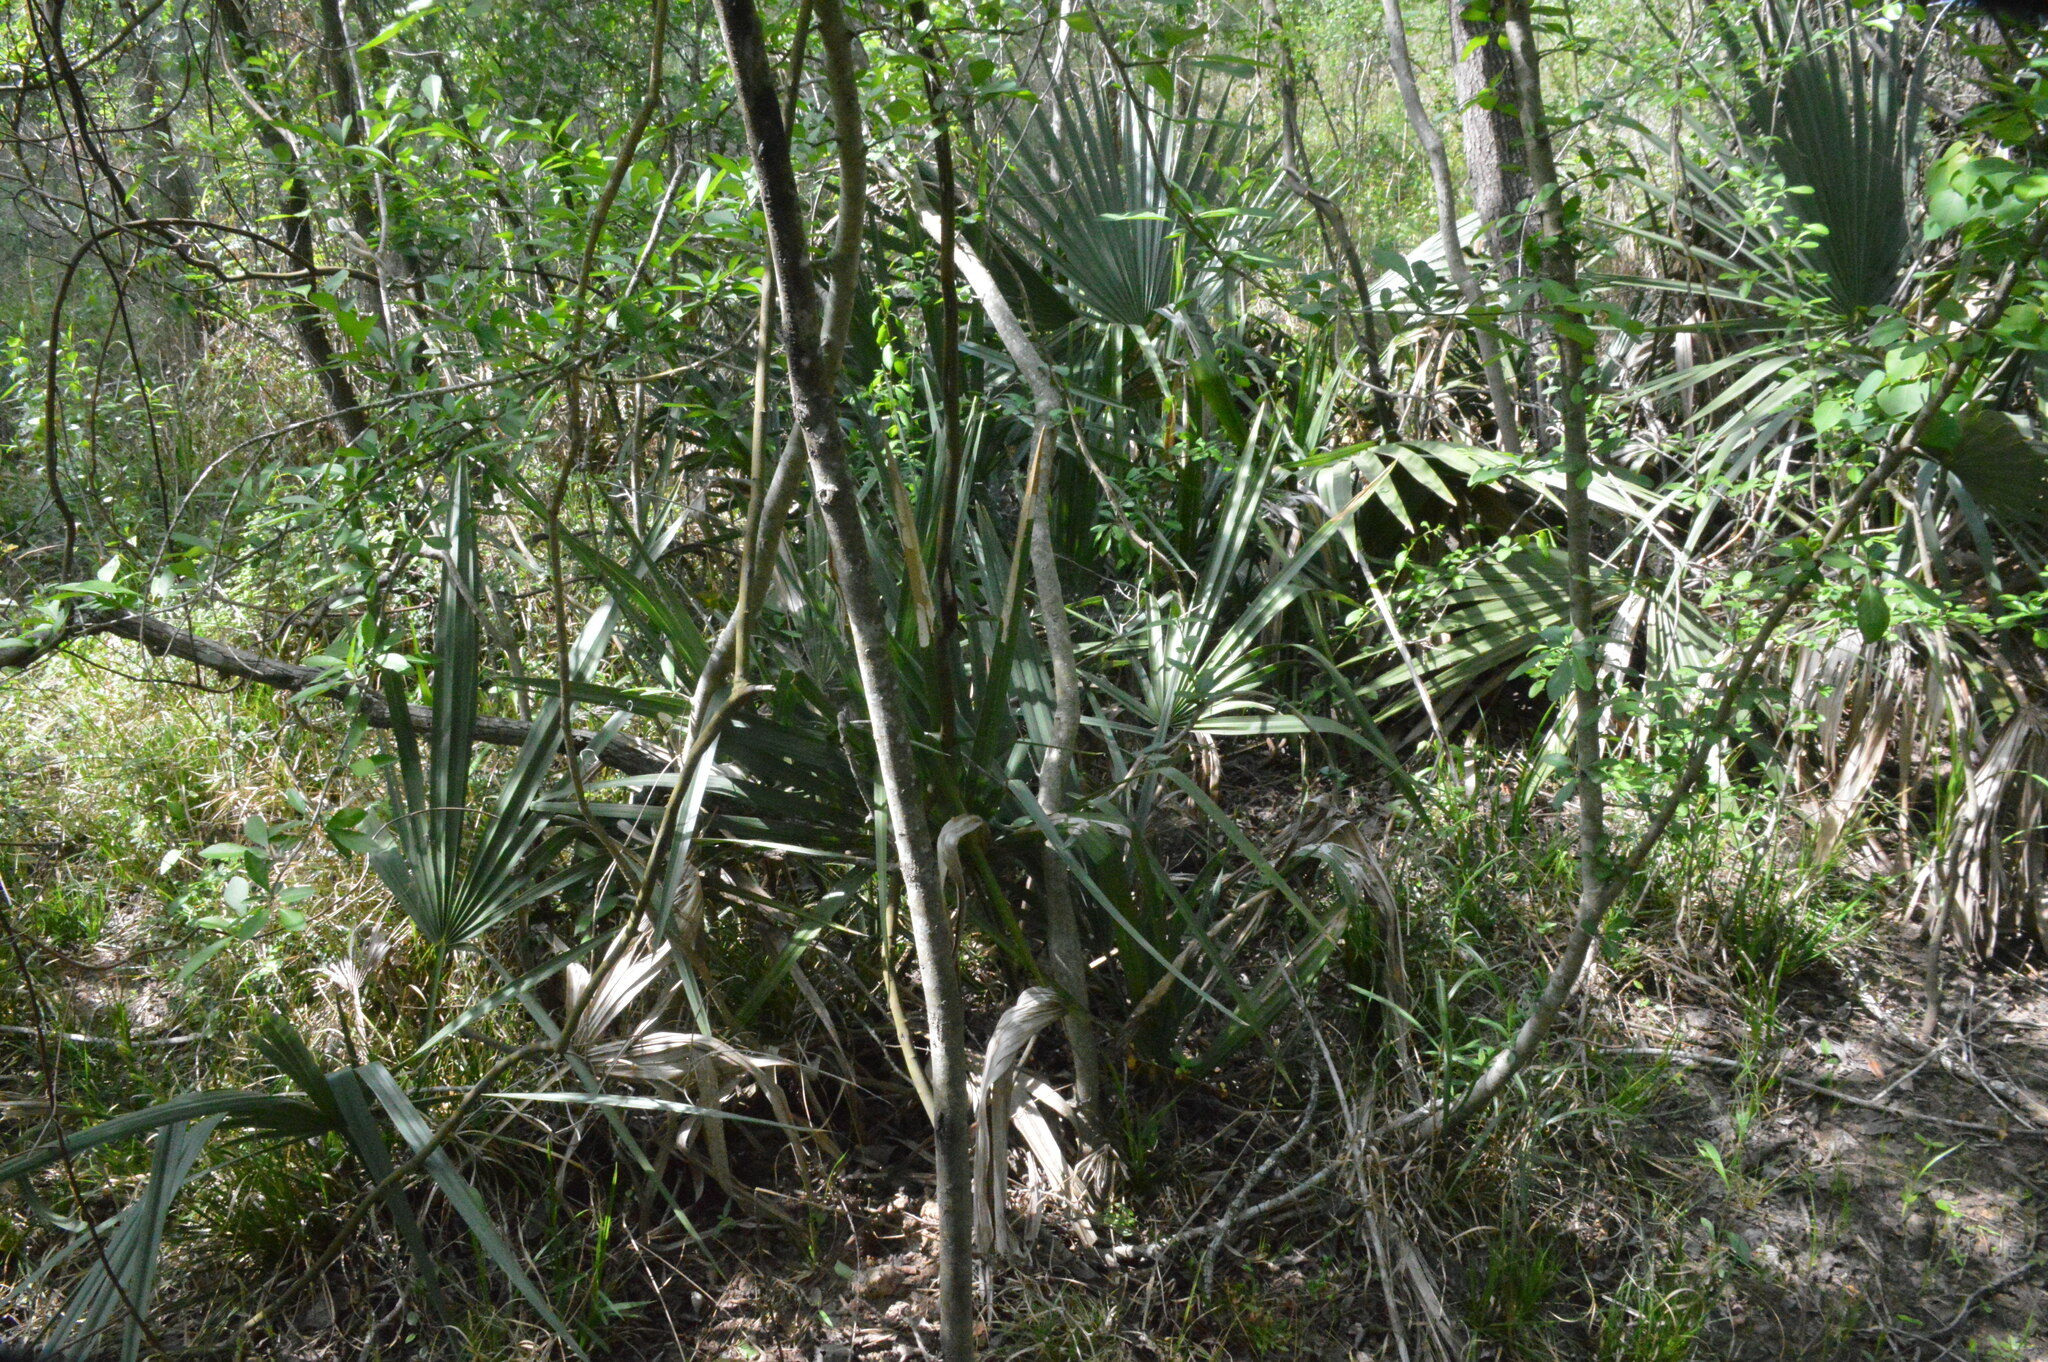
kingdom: Plantae
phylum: Tracheophyta
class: Liliopsida
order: Arecales
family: Arecaceae
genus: Sabal
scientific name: Sabal minor
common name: Dwarf palmetto
